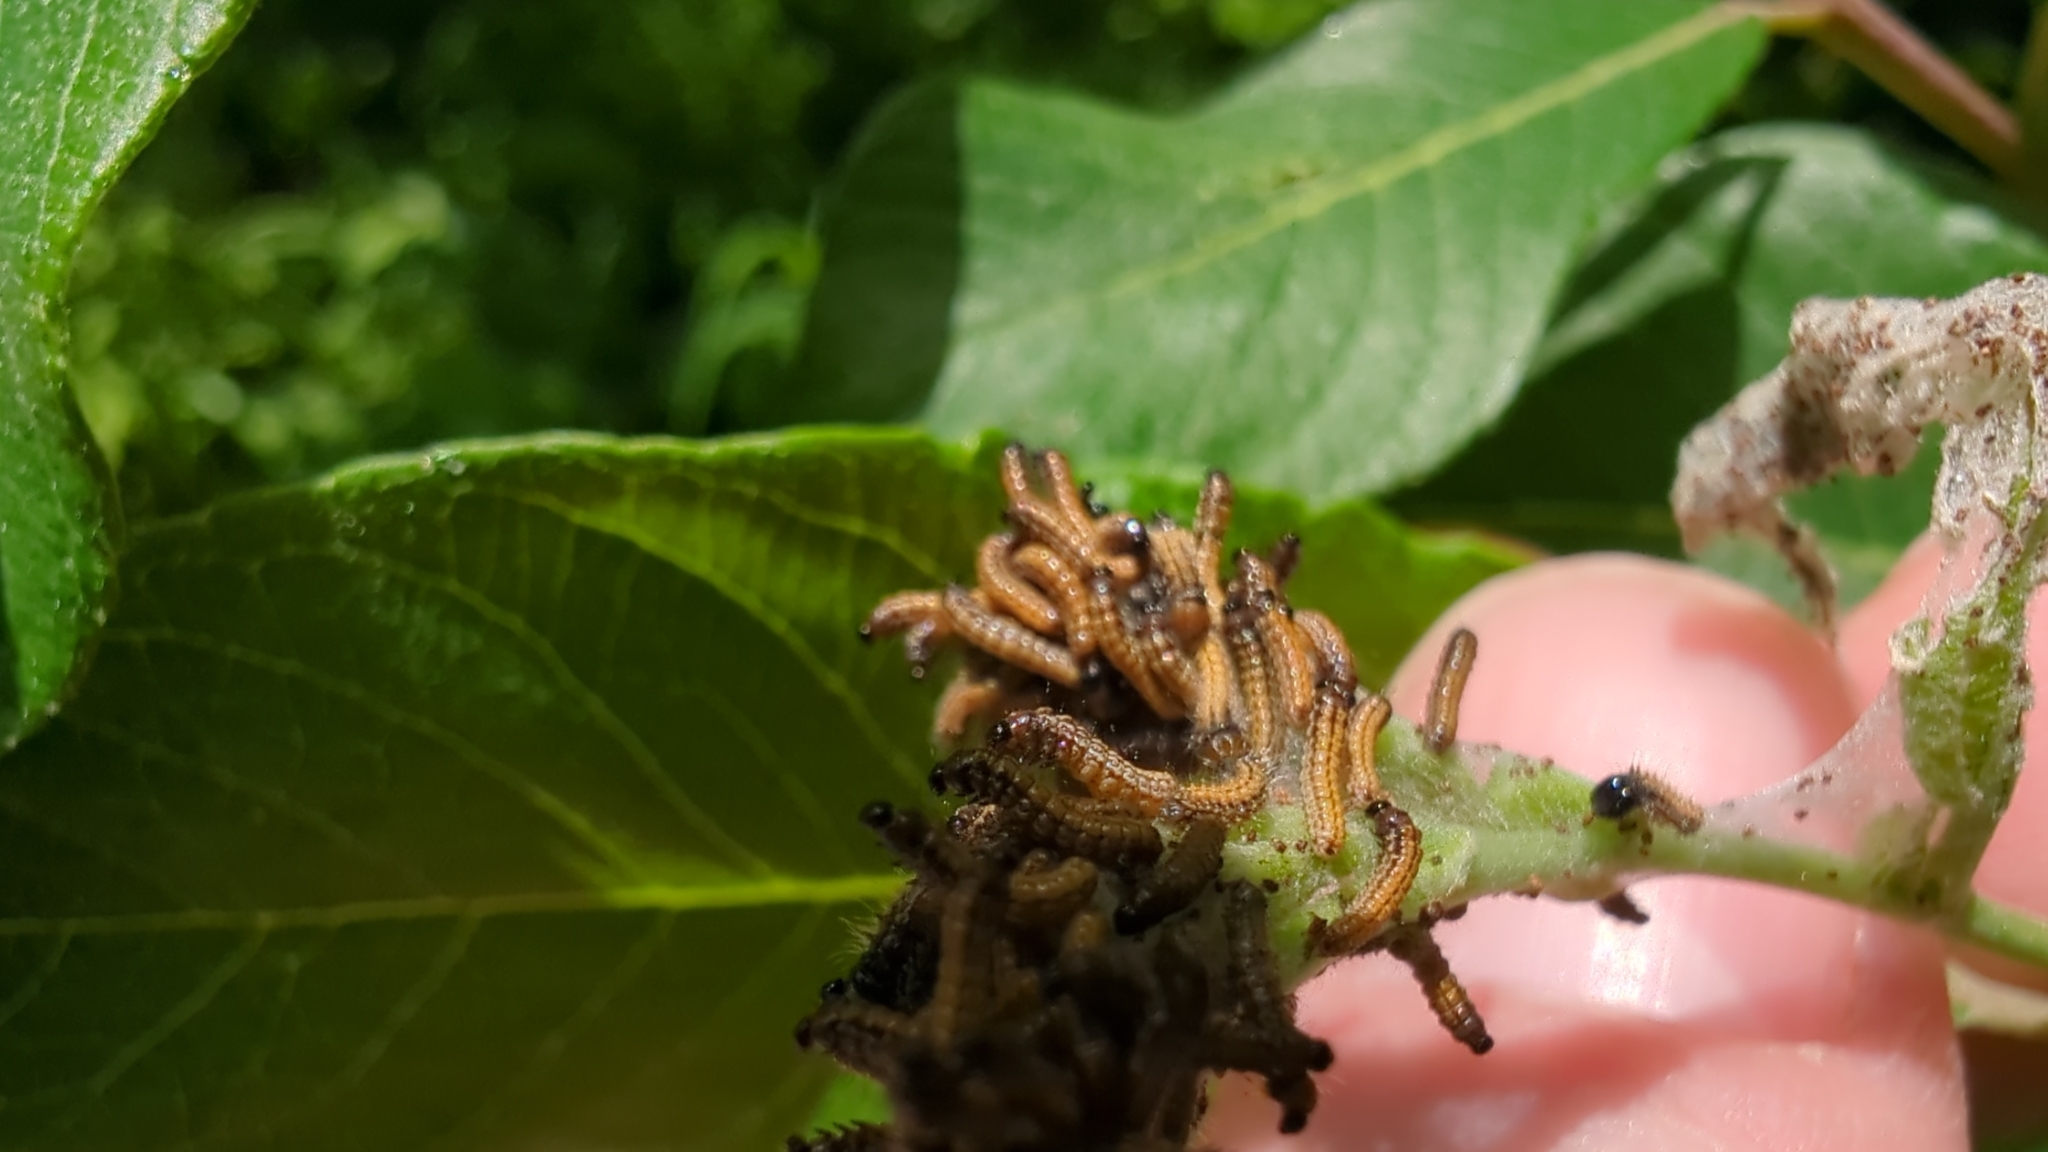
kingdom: Animalia
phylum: Arthropoda
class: Insecta
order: Lepidoptera
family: Lasiocampidae
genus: Malacosoma
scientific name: Malacosoma californica
